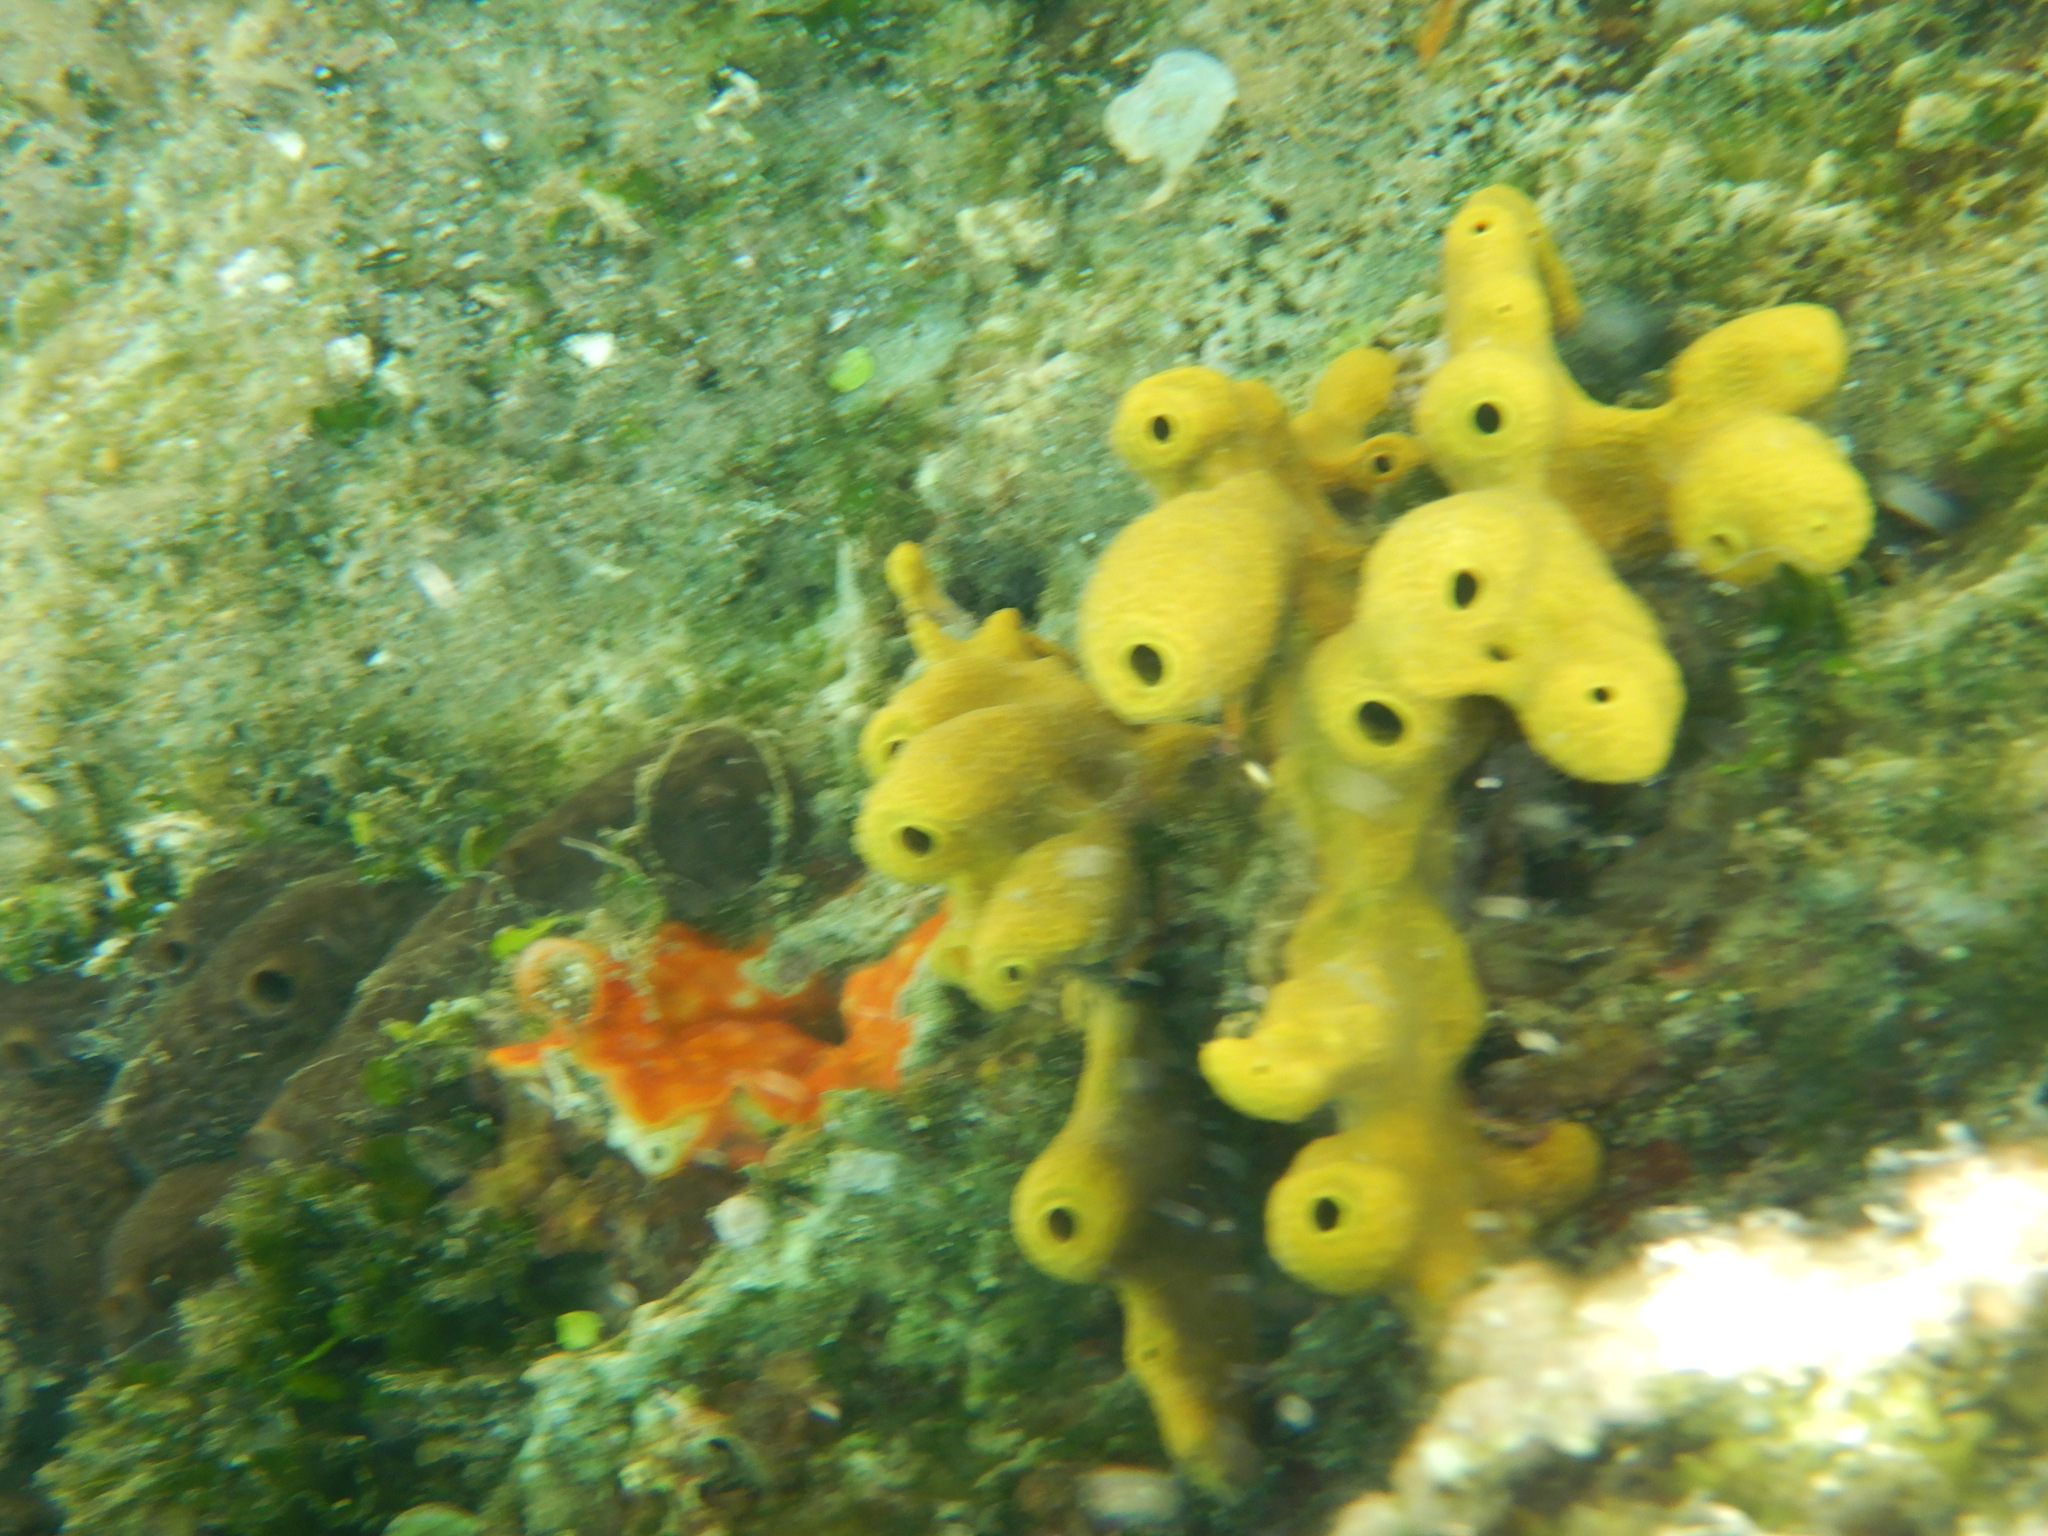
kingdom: Animalia
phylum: Porifera
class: Demospongiae
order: Verongiida
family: Aplysinidae
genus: Aplysina
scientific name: Aplysina aerophoba
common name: Aureate sponge
